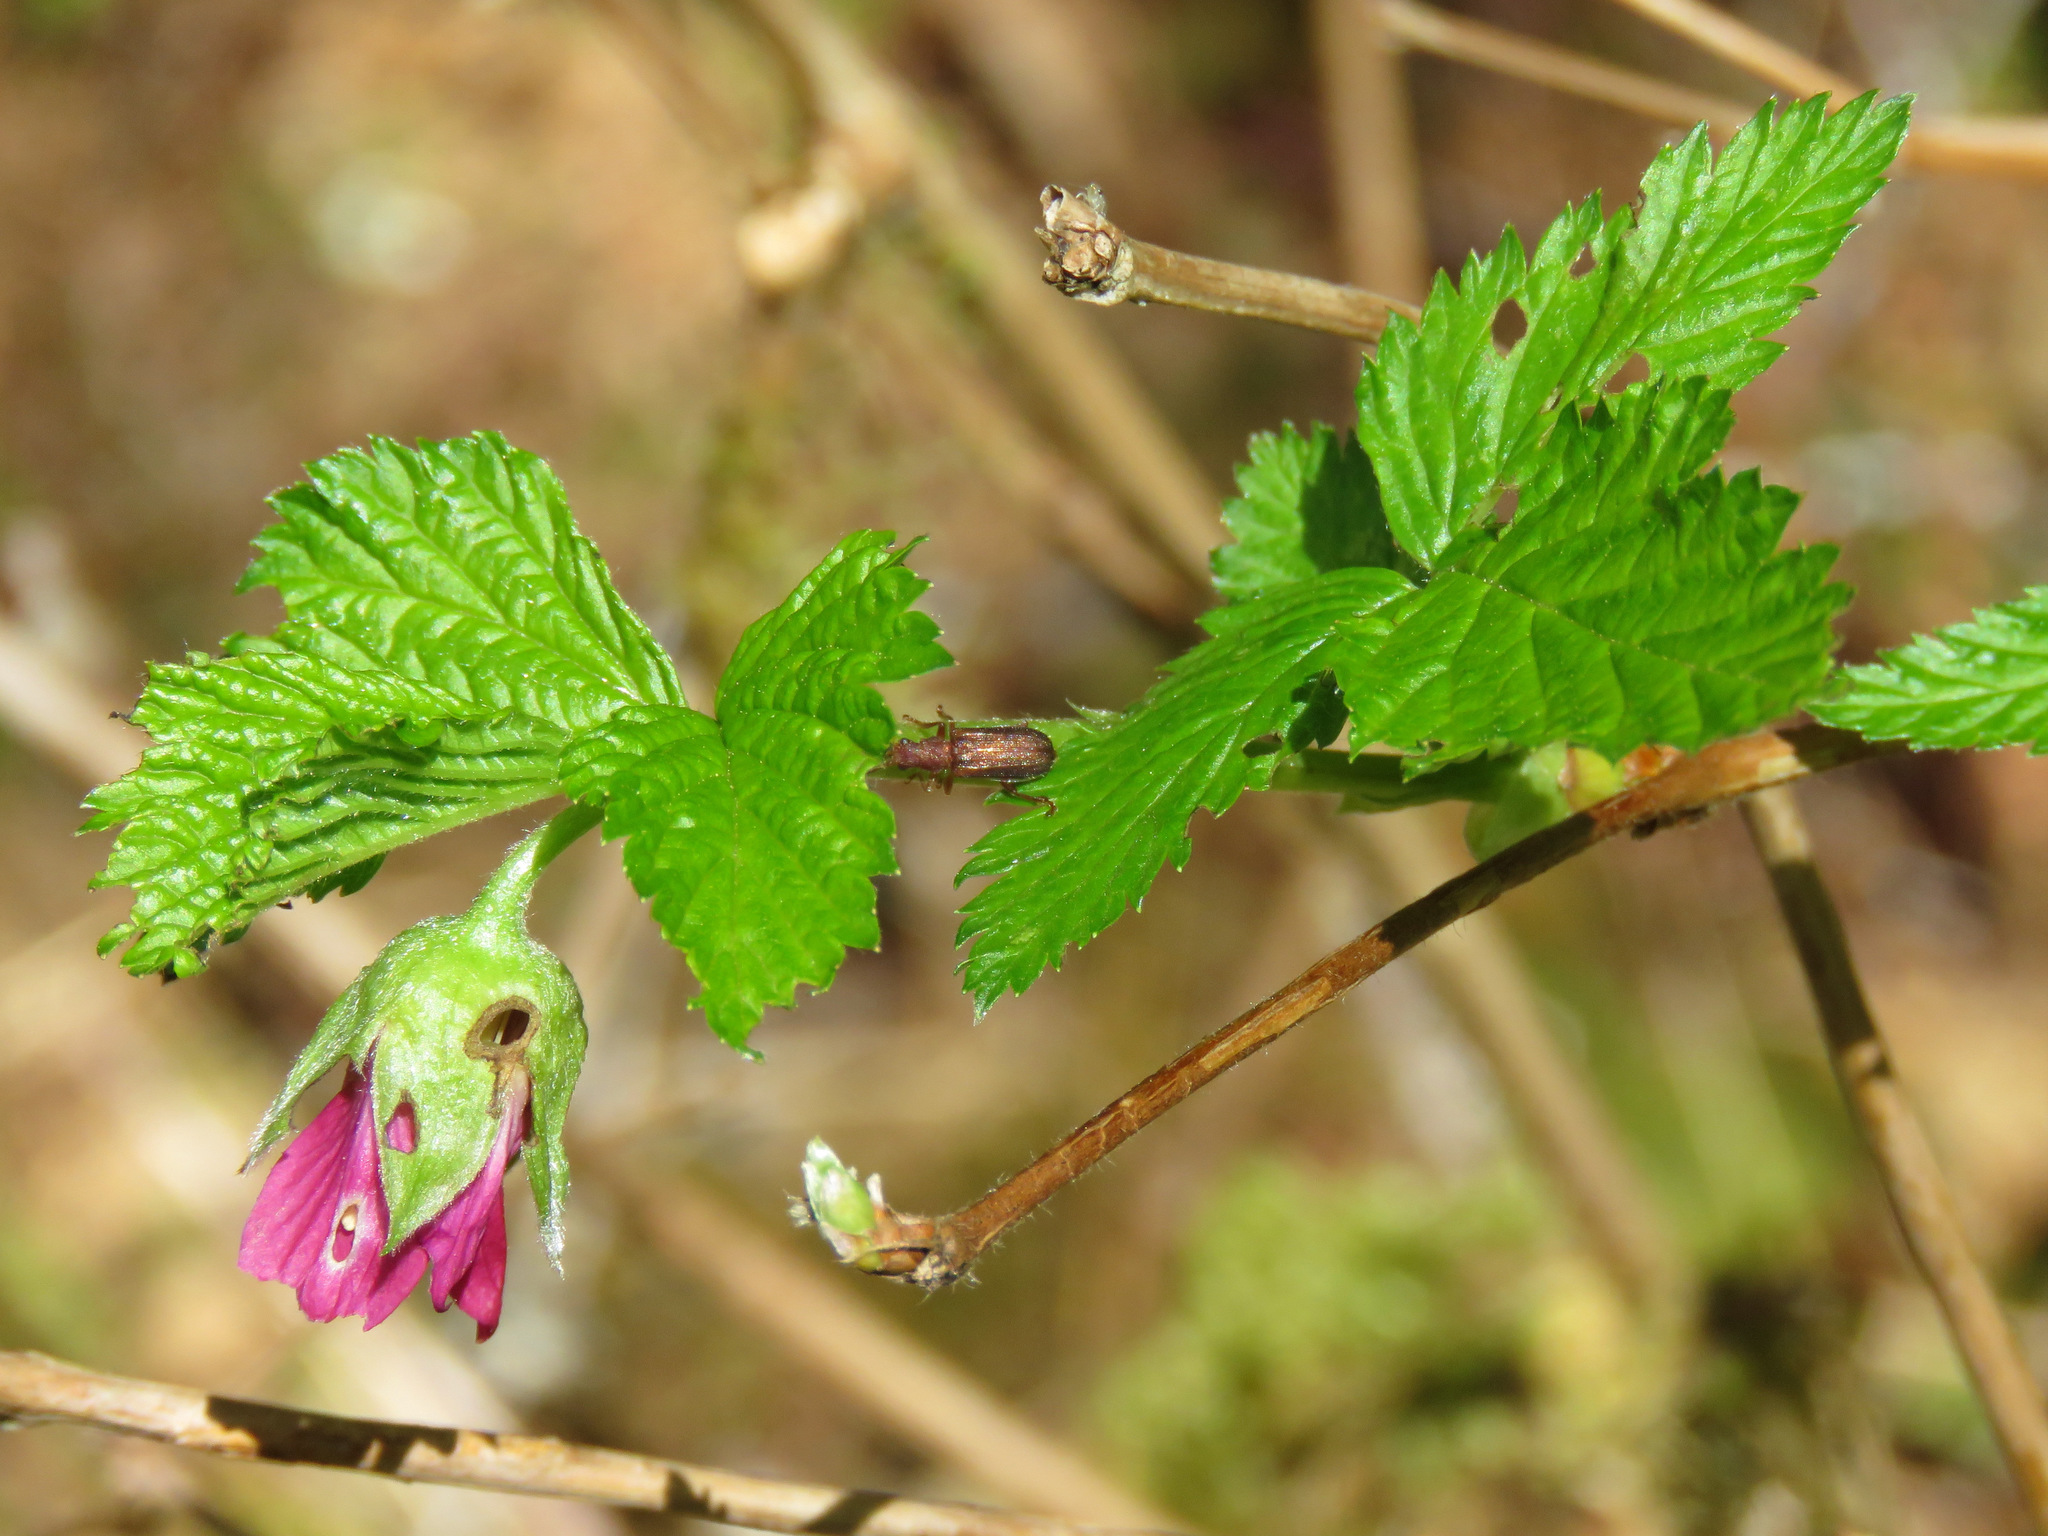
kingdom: Plantae
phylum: Tracheophyta
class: Magnoliopsida
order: Rosales
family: Rosaceae
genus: Rubus
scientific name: Rubus spectabilis
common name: Salmonberry
